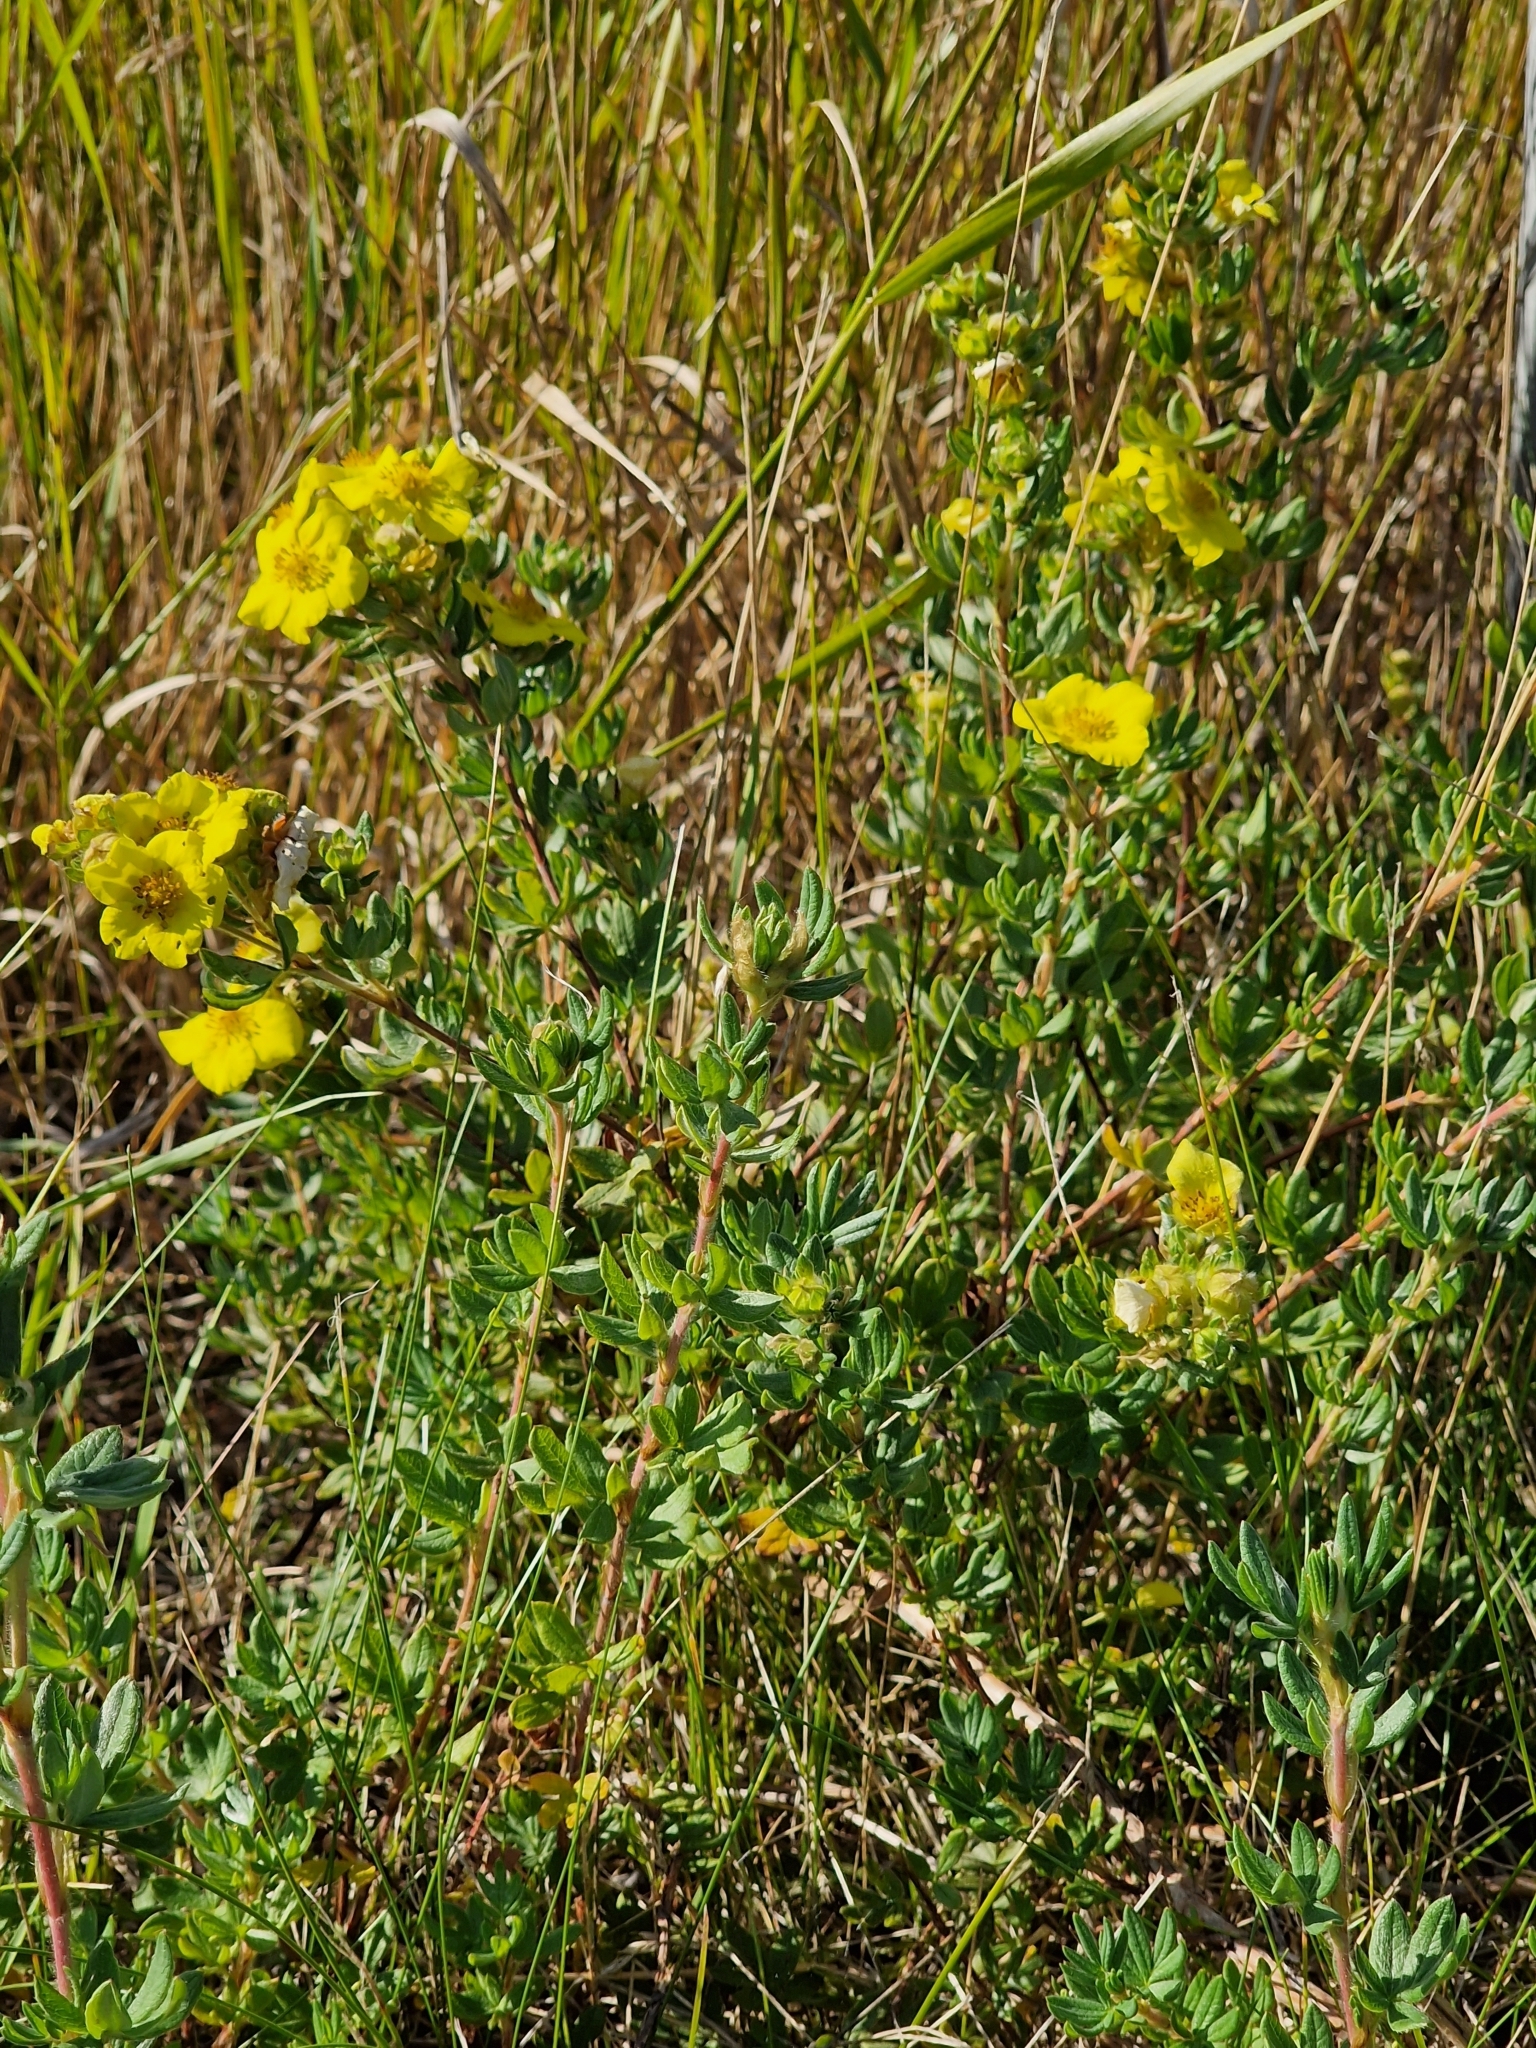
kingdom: Plantae
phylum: Tracheophyta
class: Magnoliopsida
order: Rosales
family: Rosaceae
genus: Dasiphora
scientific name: Dasiphora fruticosa
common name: Shrubby cinquefoil
